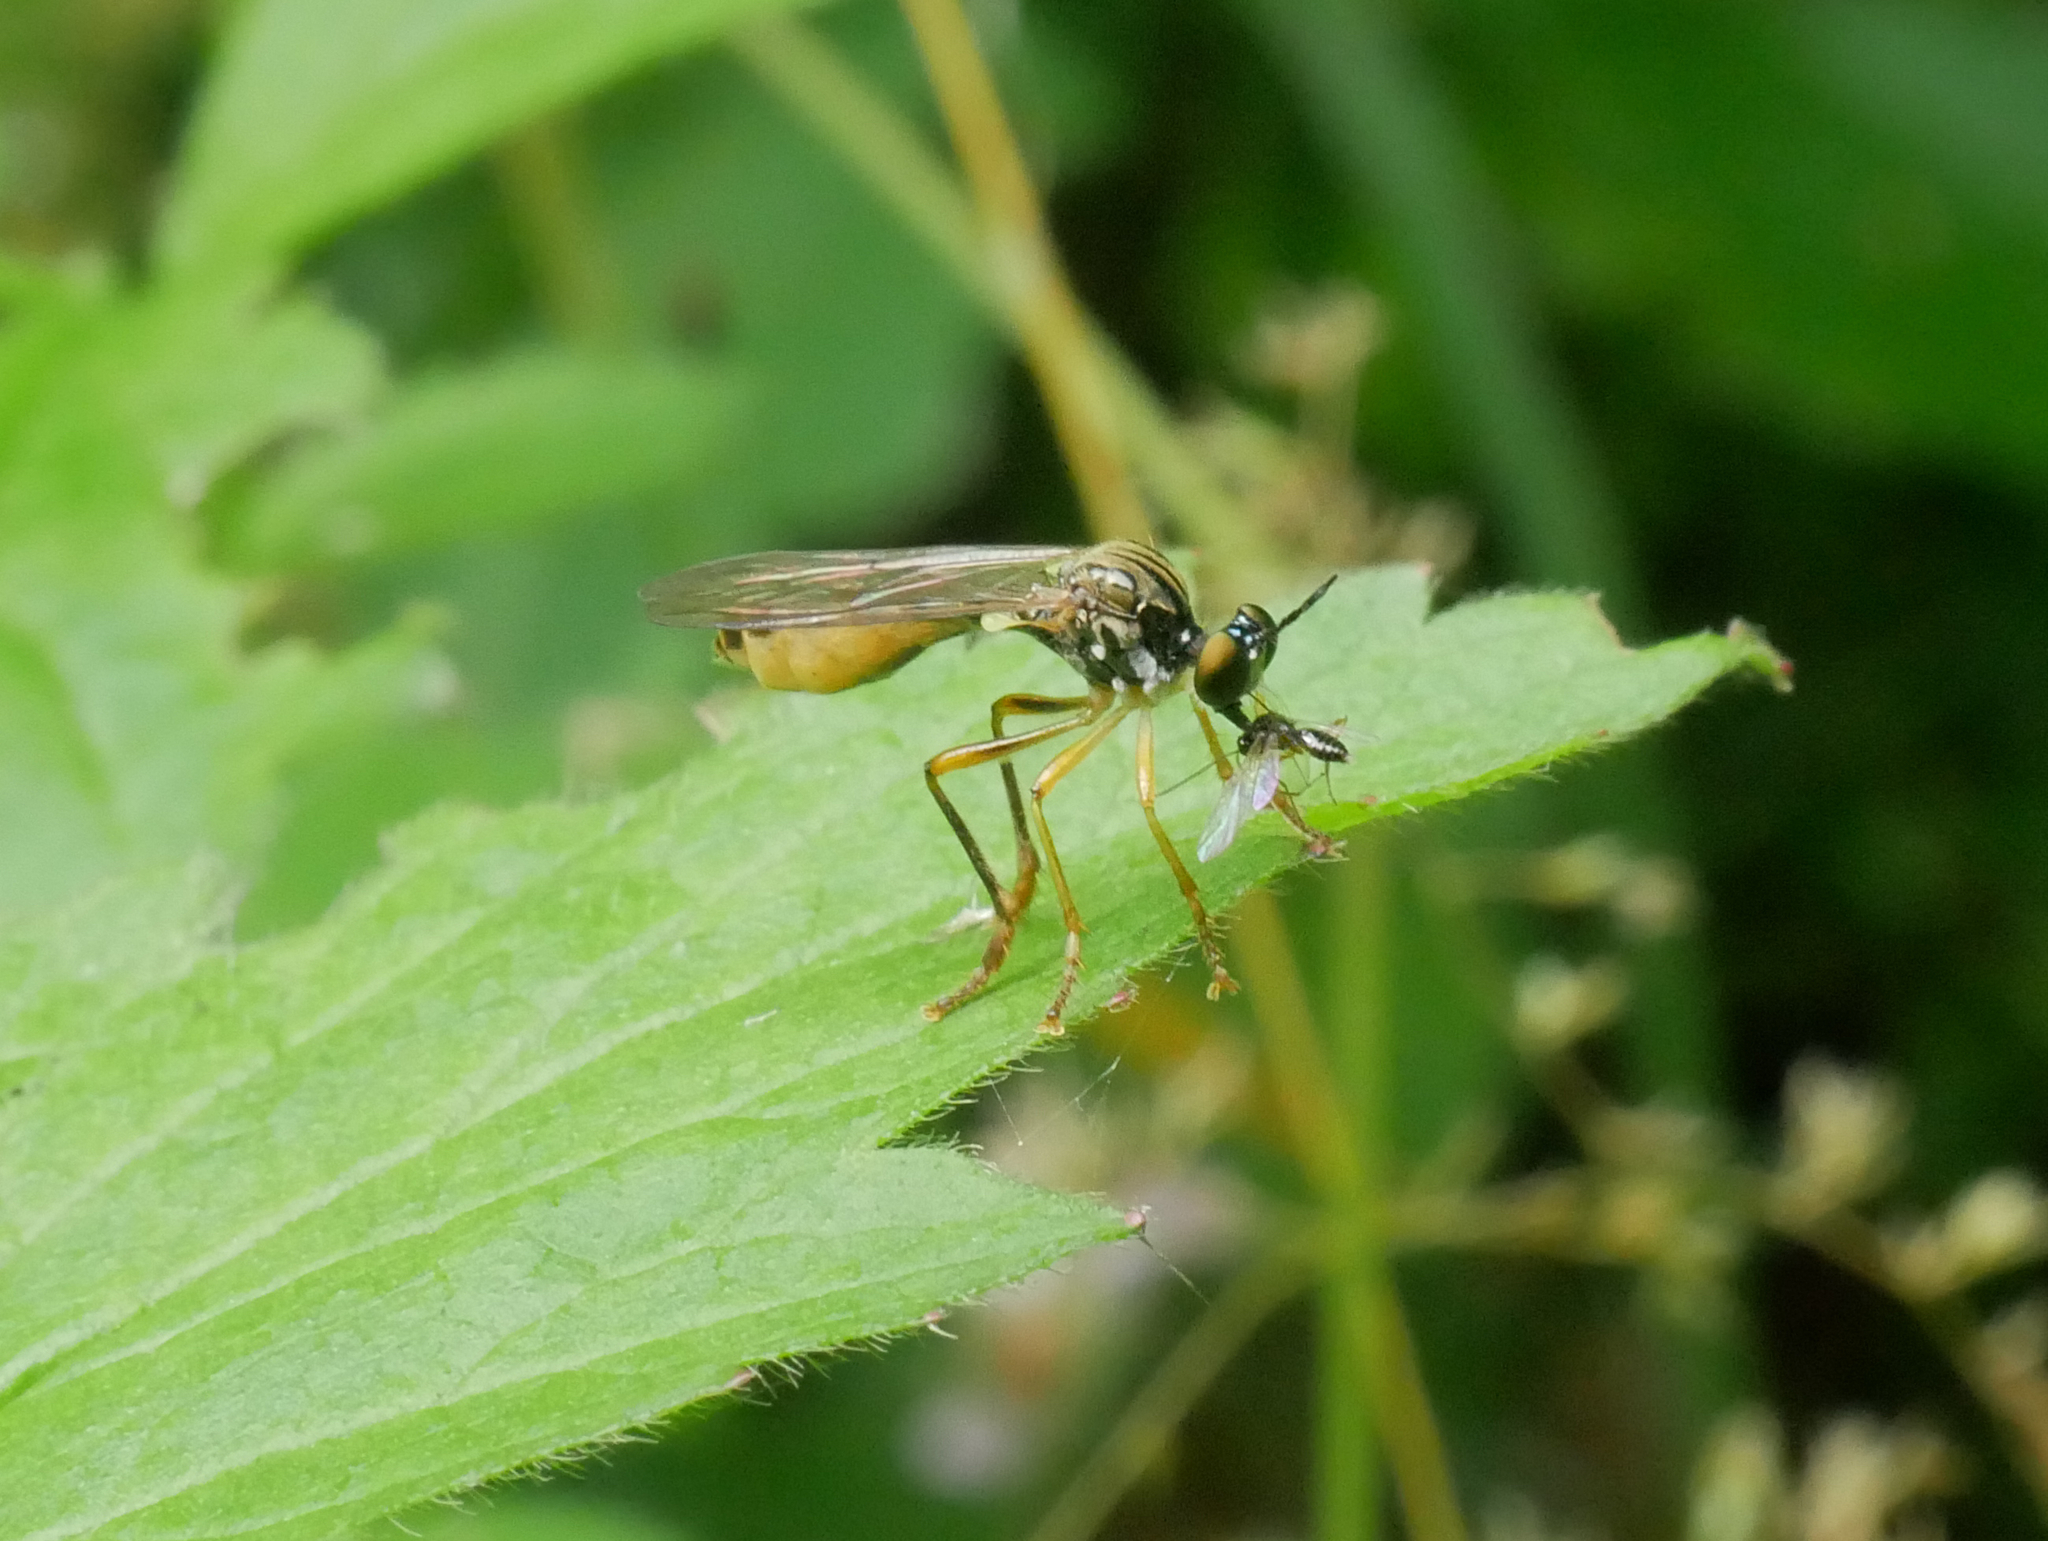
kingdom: Animalia
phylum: Arthropoda
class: Insecta
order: Diptera
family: Asilidae
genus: Dioctria
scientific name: Dioctria linearis
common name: Small yellow-legged robberfly
